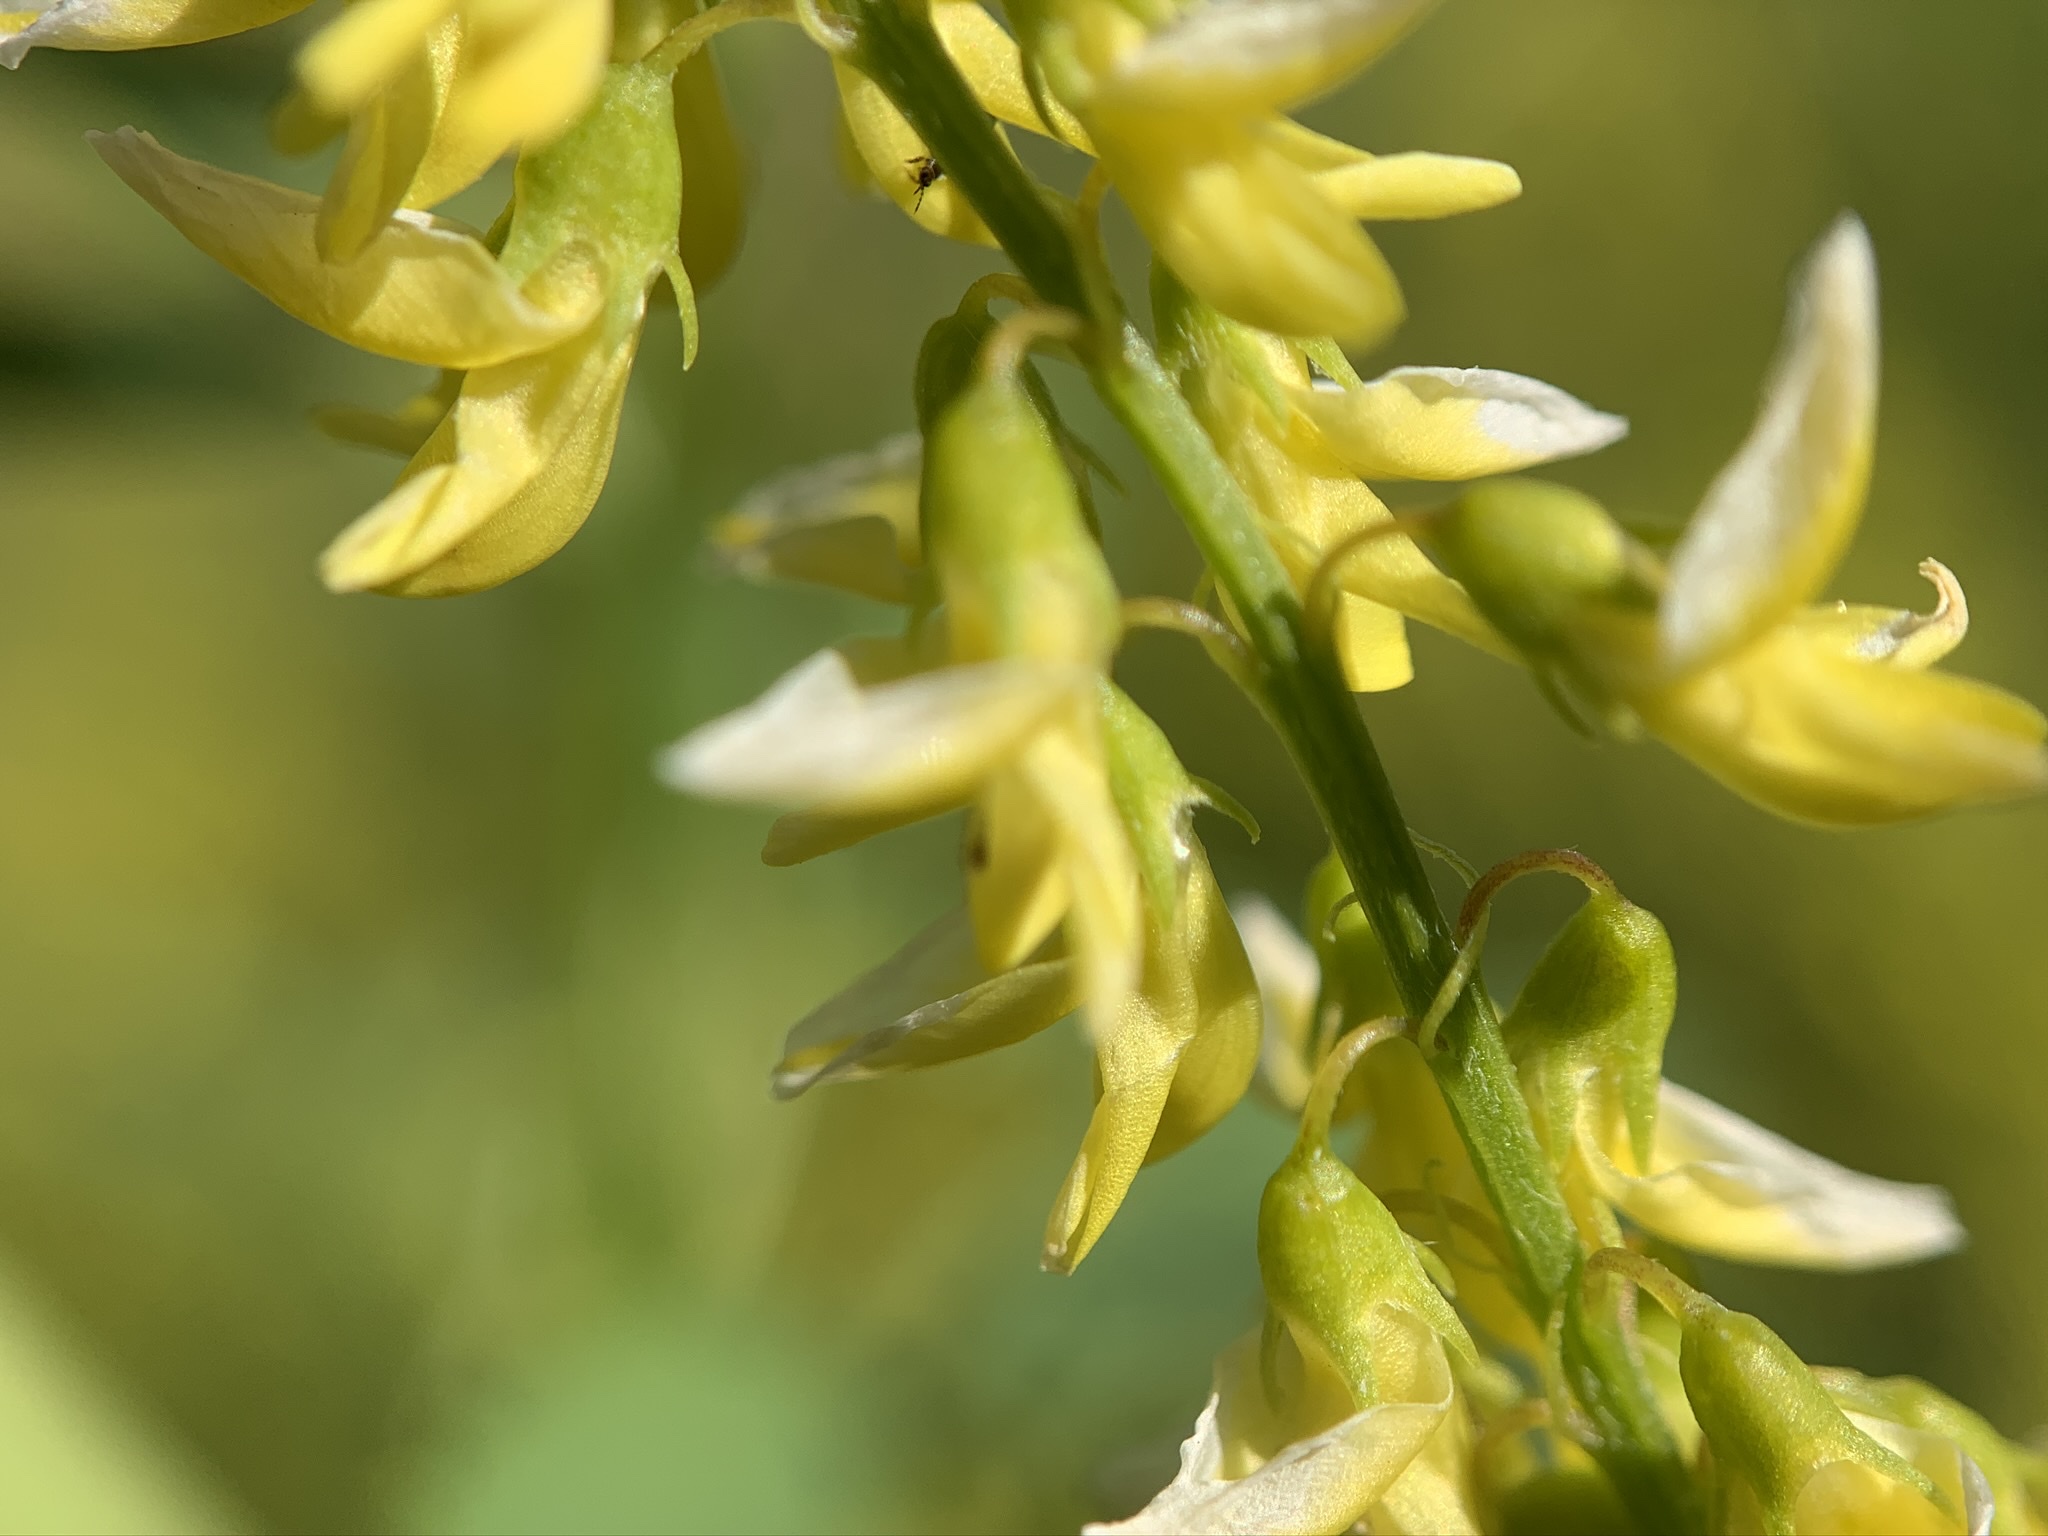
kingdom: Plantae
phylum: Tracheophyta
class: Magnoliopsida
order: Fabales
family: Fabaceae
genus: Melilotus
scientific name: Melilotus officinalis
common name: Sweetclover
